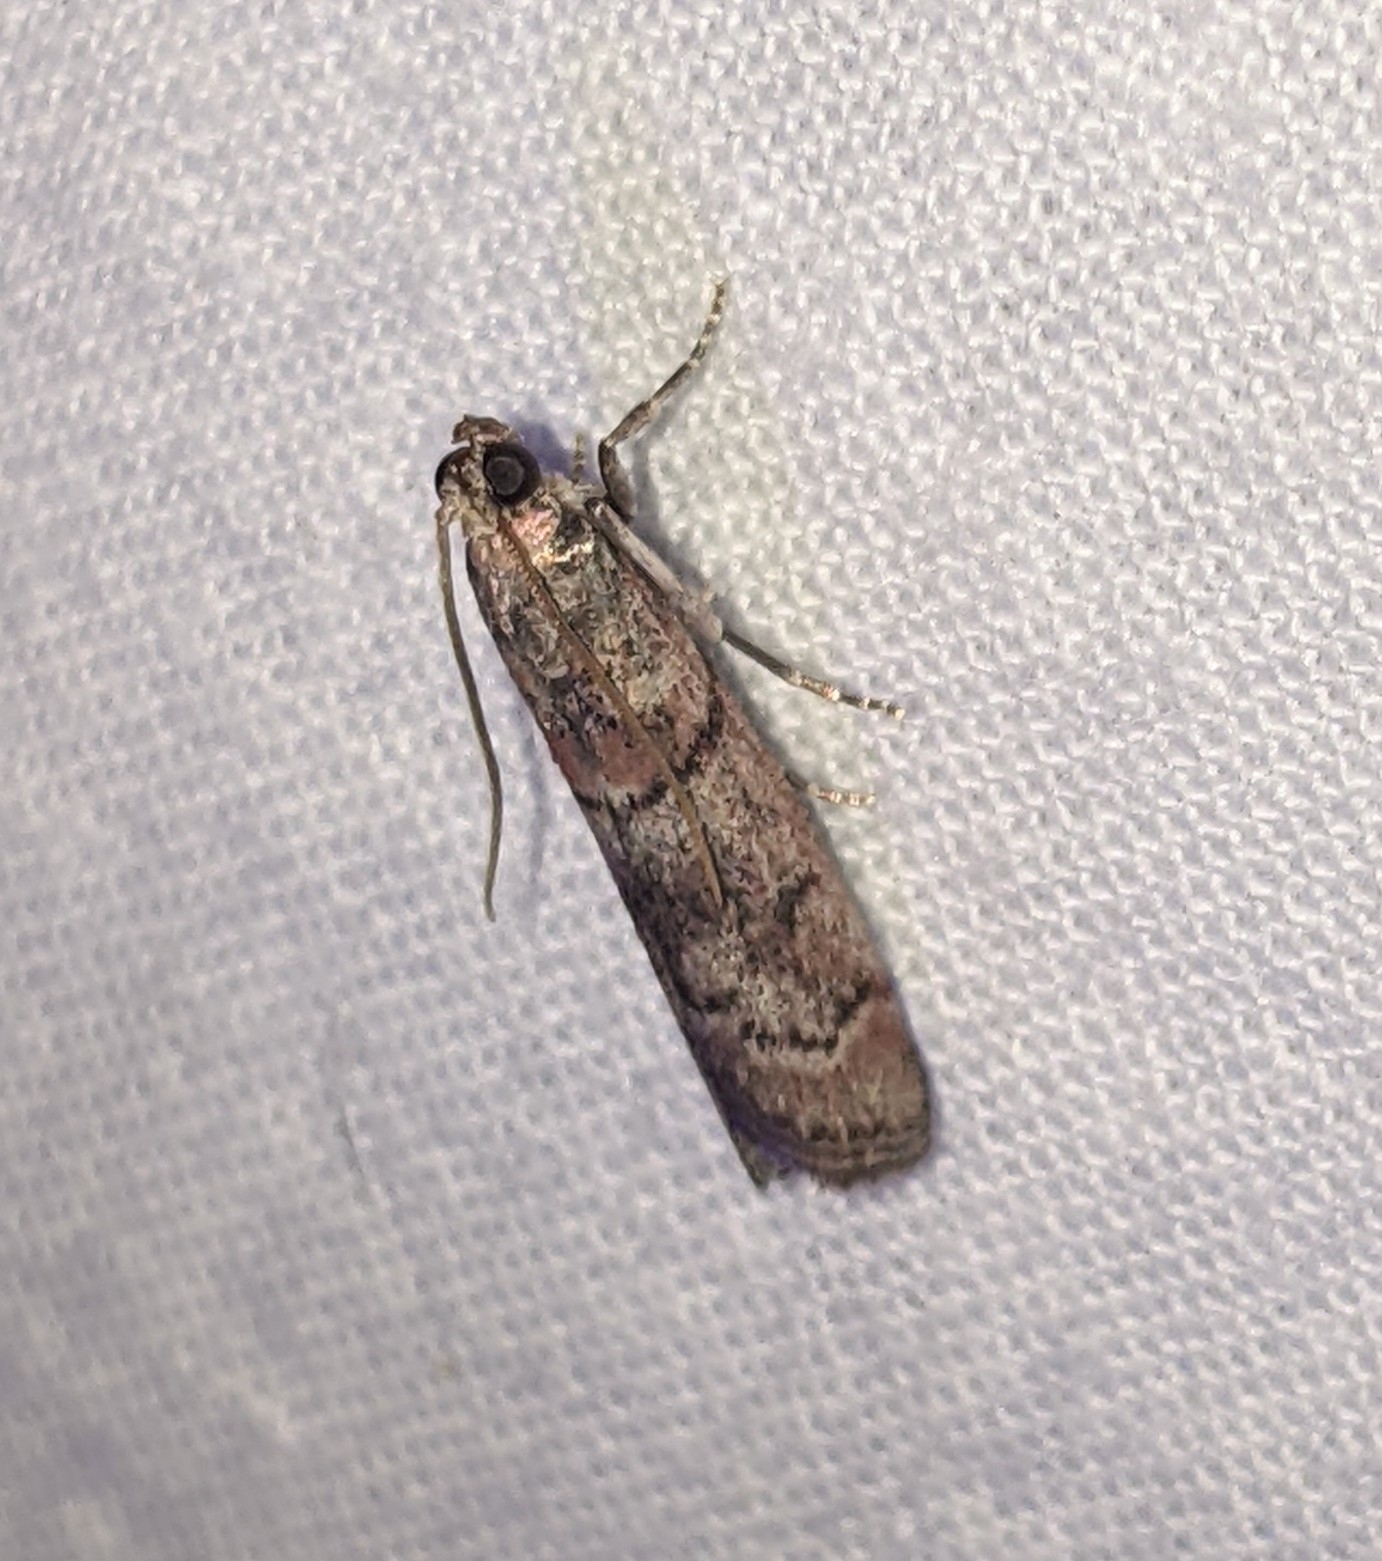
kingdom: Animalia
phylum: Arthropoda
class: Insecta
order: Lepidoptera
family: Pyralidae
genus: Promylea
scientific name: Promylea lunigerella
